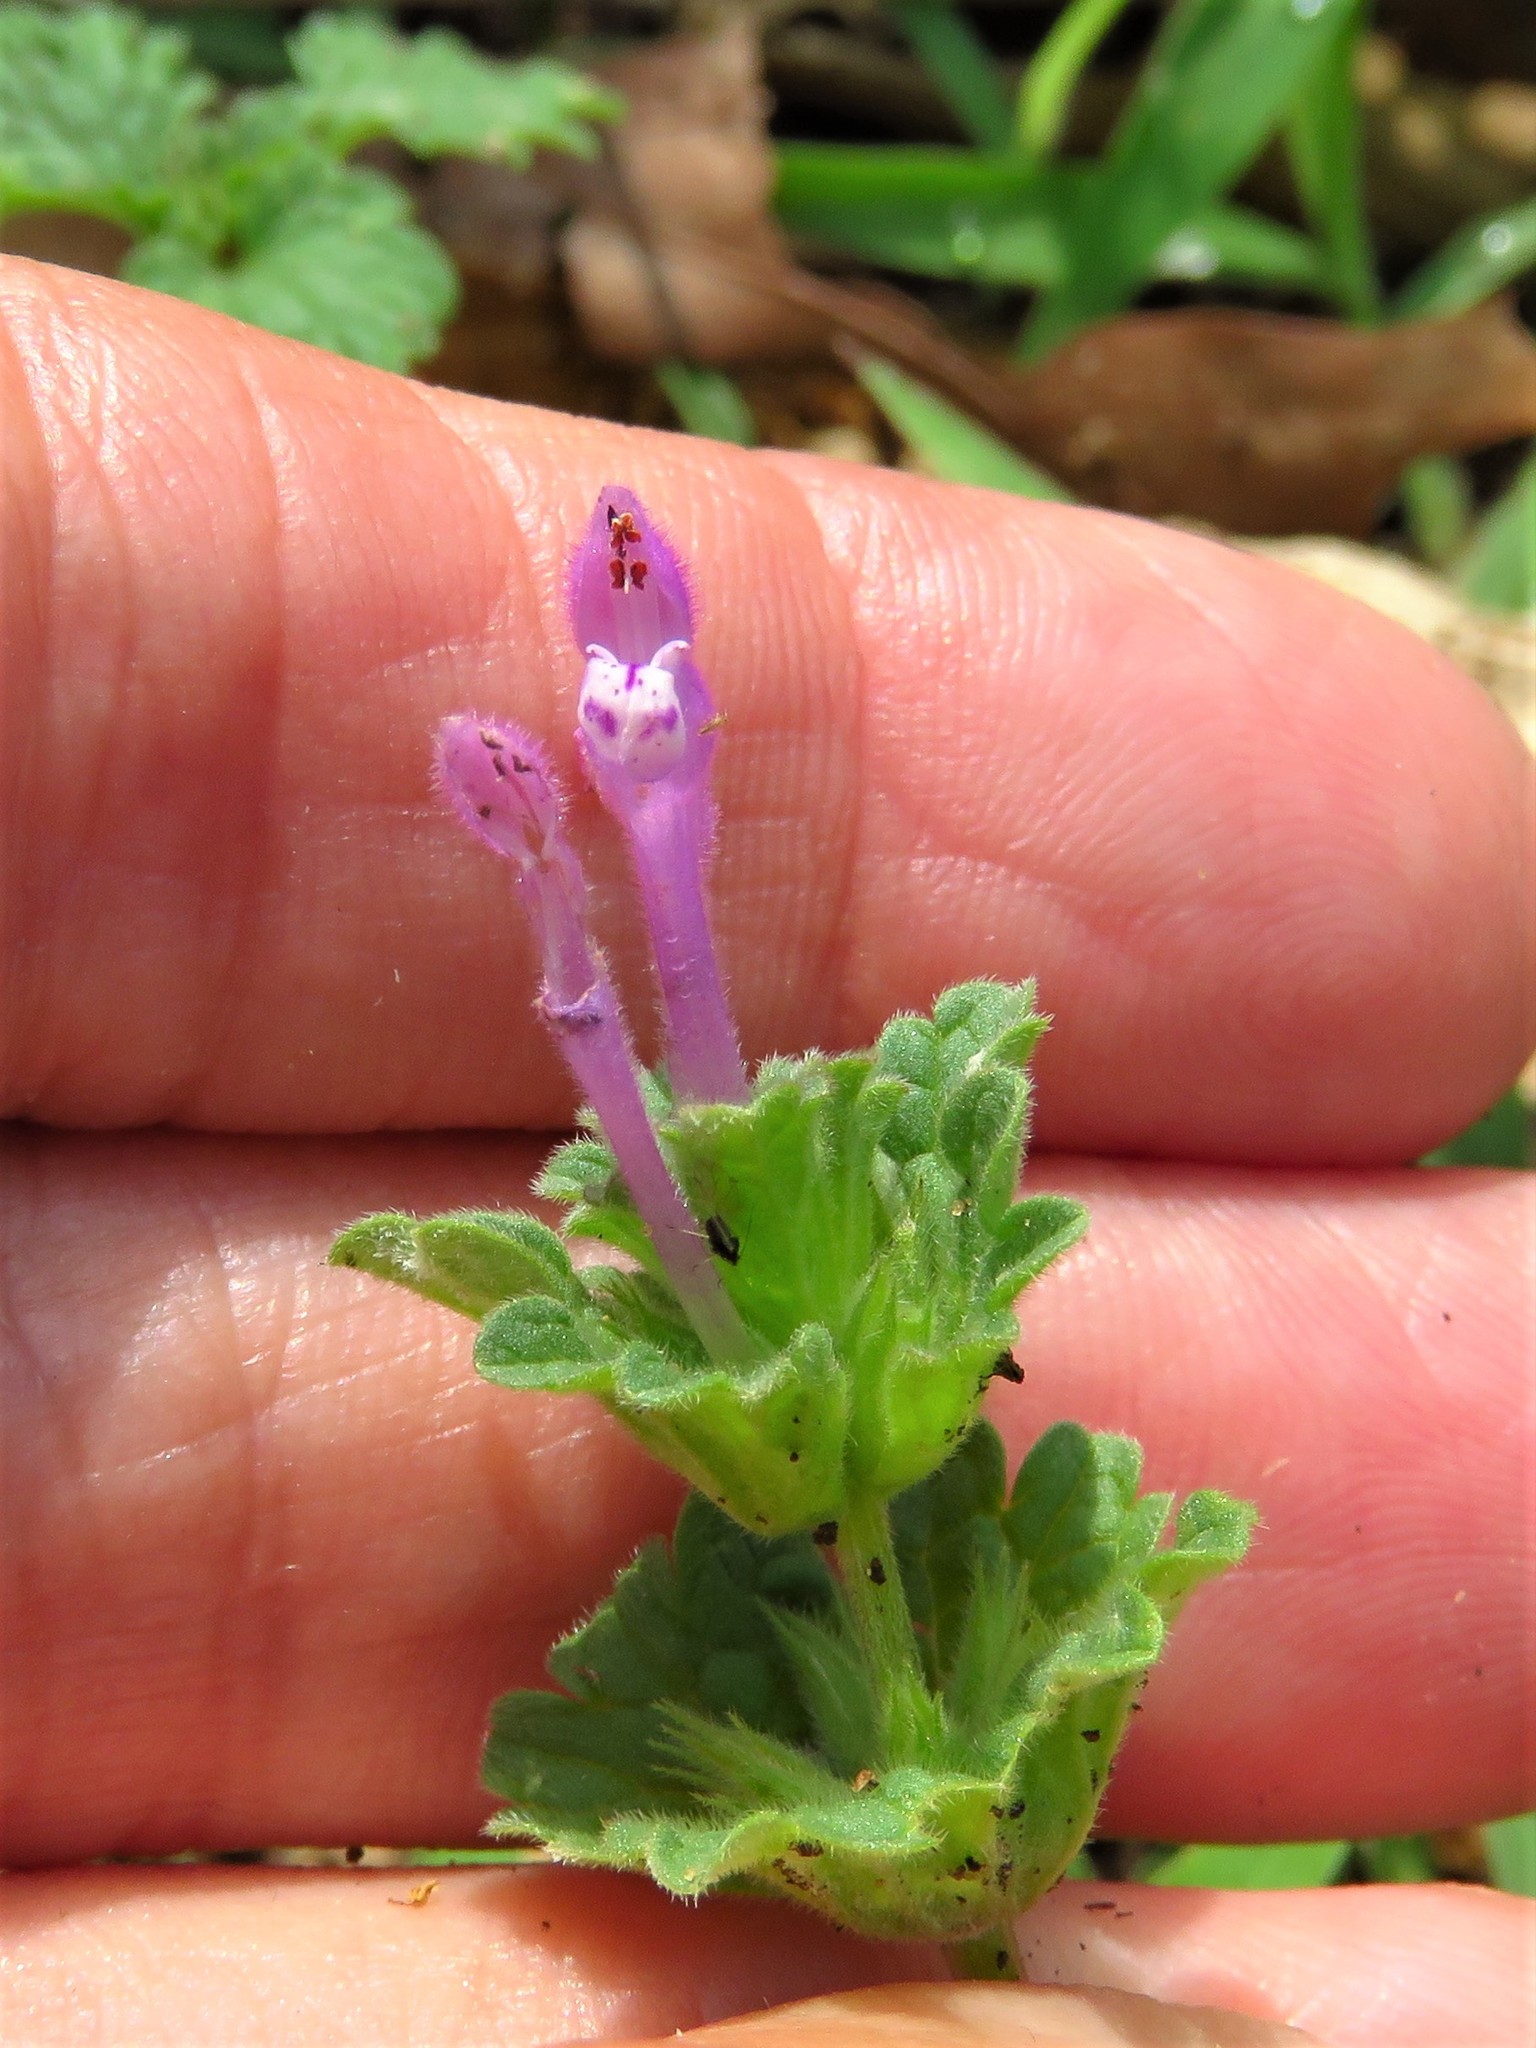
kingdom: Plantae
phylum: Tracheophyta
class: Magnoliopsida
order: Lamiales
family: Lamiaceae
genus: Lamium
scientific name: Lamium amplexicaule
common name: Henbit dead-nettle
